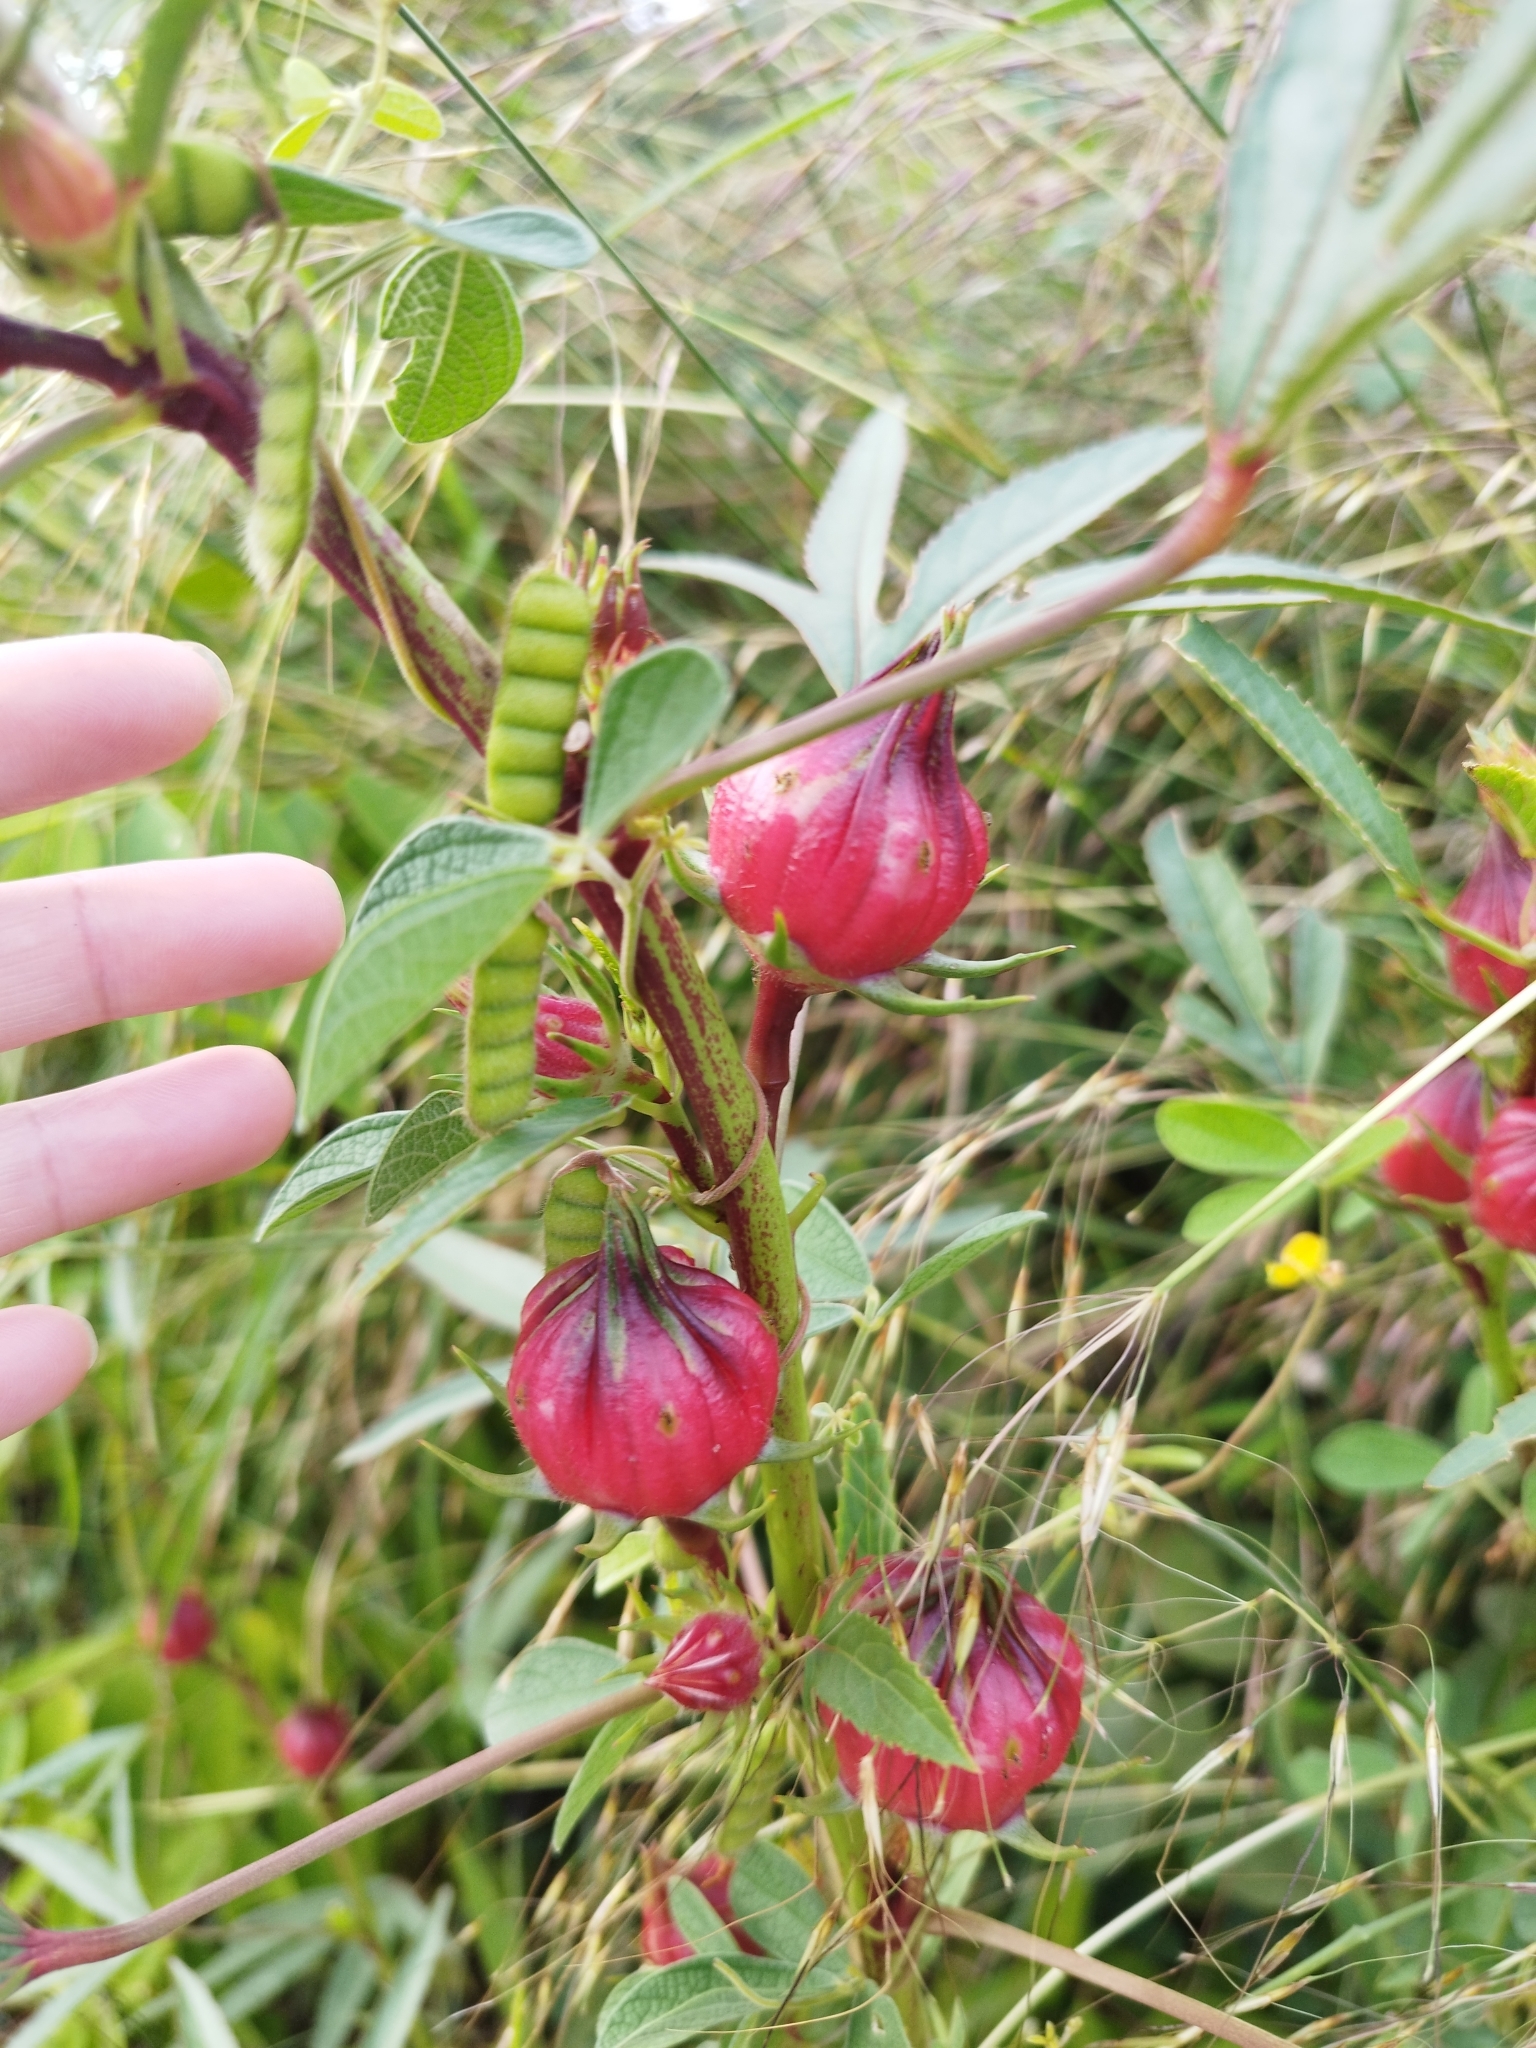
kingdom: Plantae
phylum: Tracheophyta
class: Magnoliopsida
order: Malvales
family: Malvaceae
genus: Hibiscus
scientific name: Hibiscus sabdariffa
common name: Roselle
